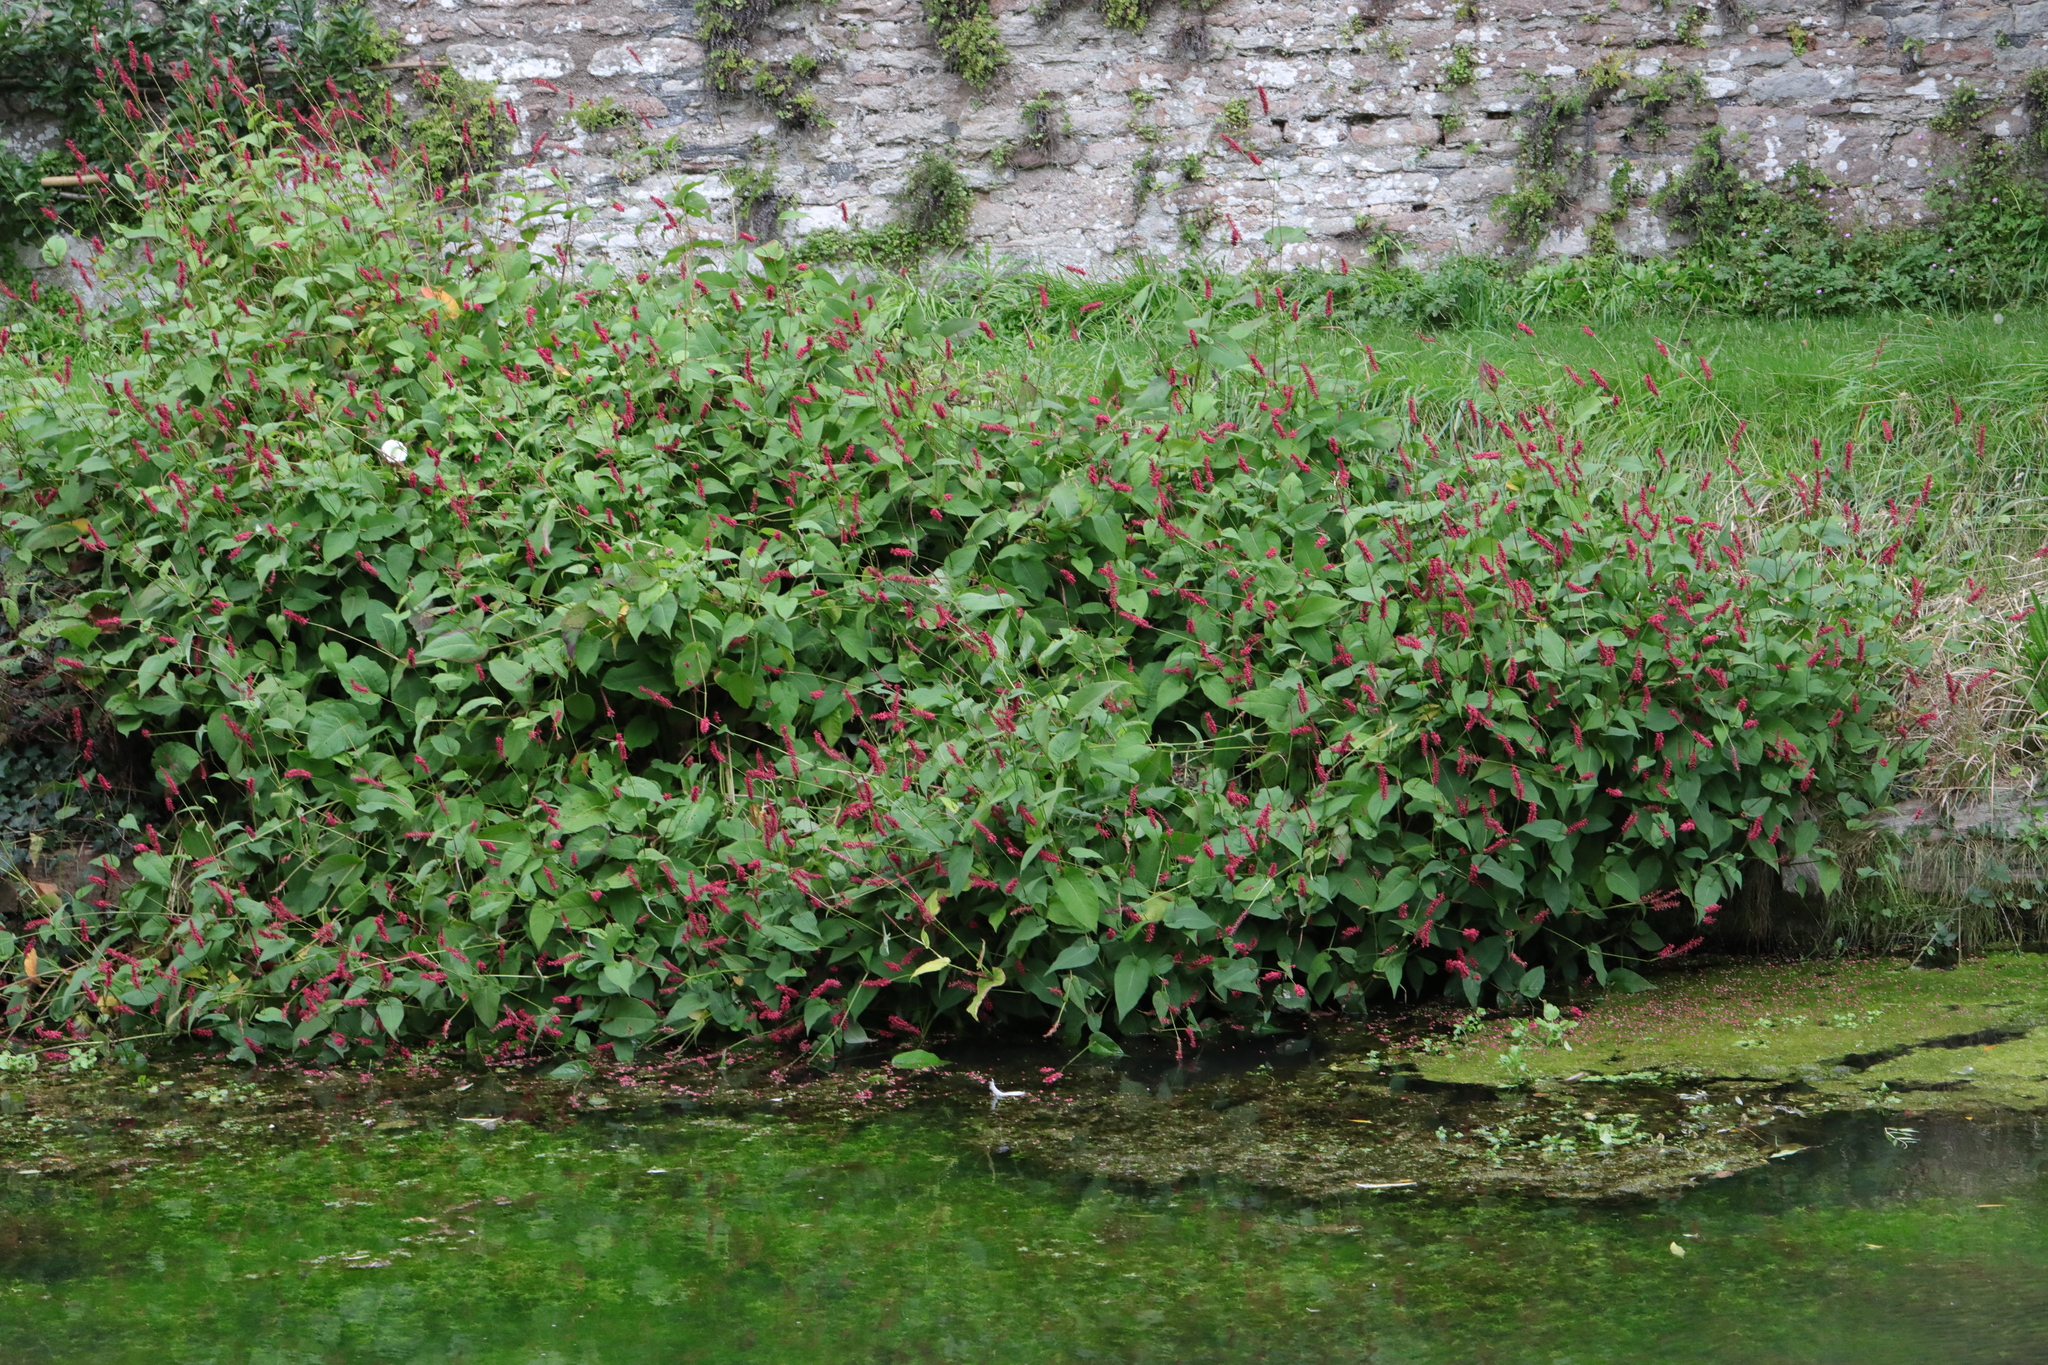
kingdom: Plantae
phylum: Tracheophyta
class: Magnoliopsida
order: Caryophyllales
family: Polygonaceae
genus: Bistorta
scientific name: Bistorta amplexicaulis
